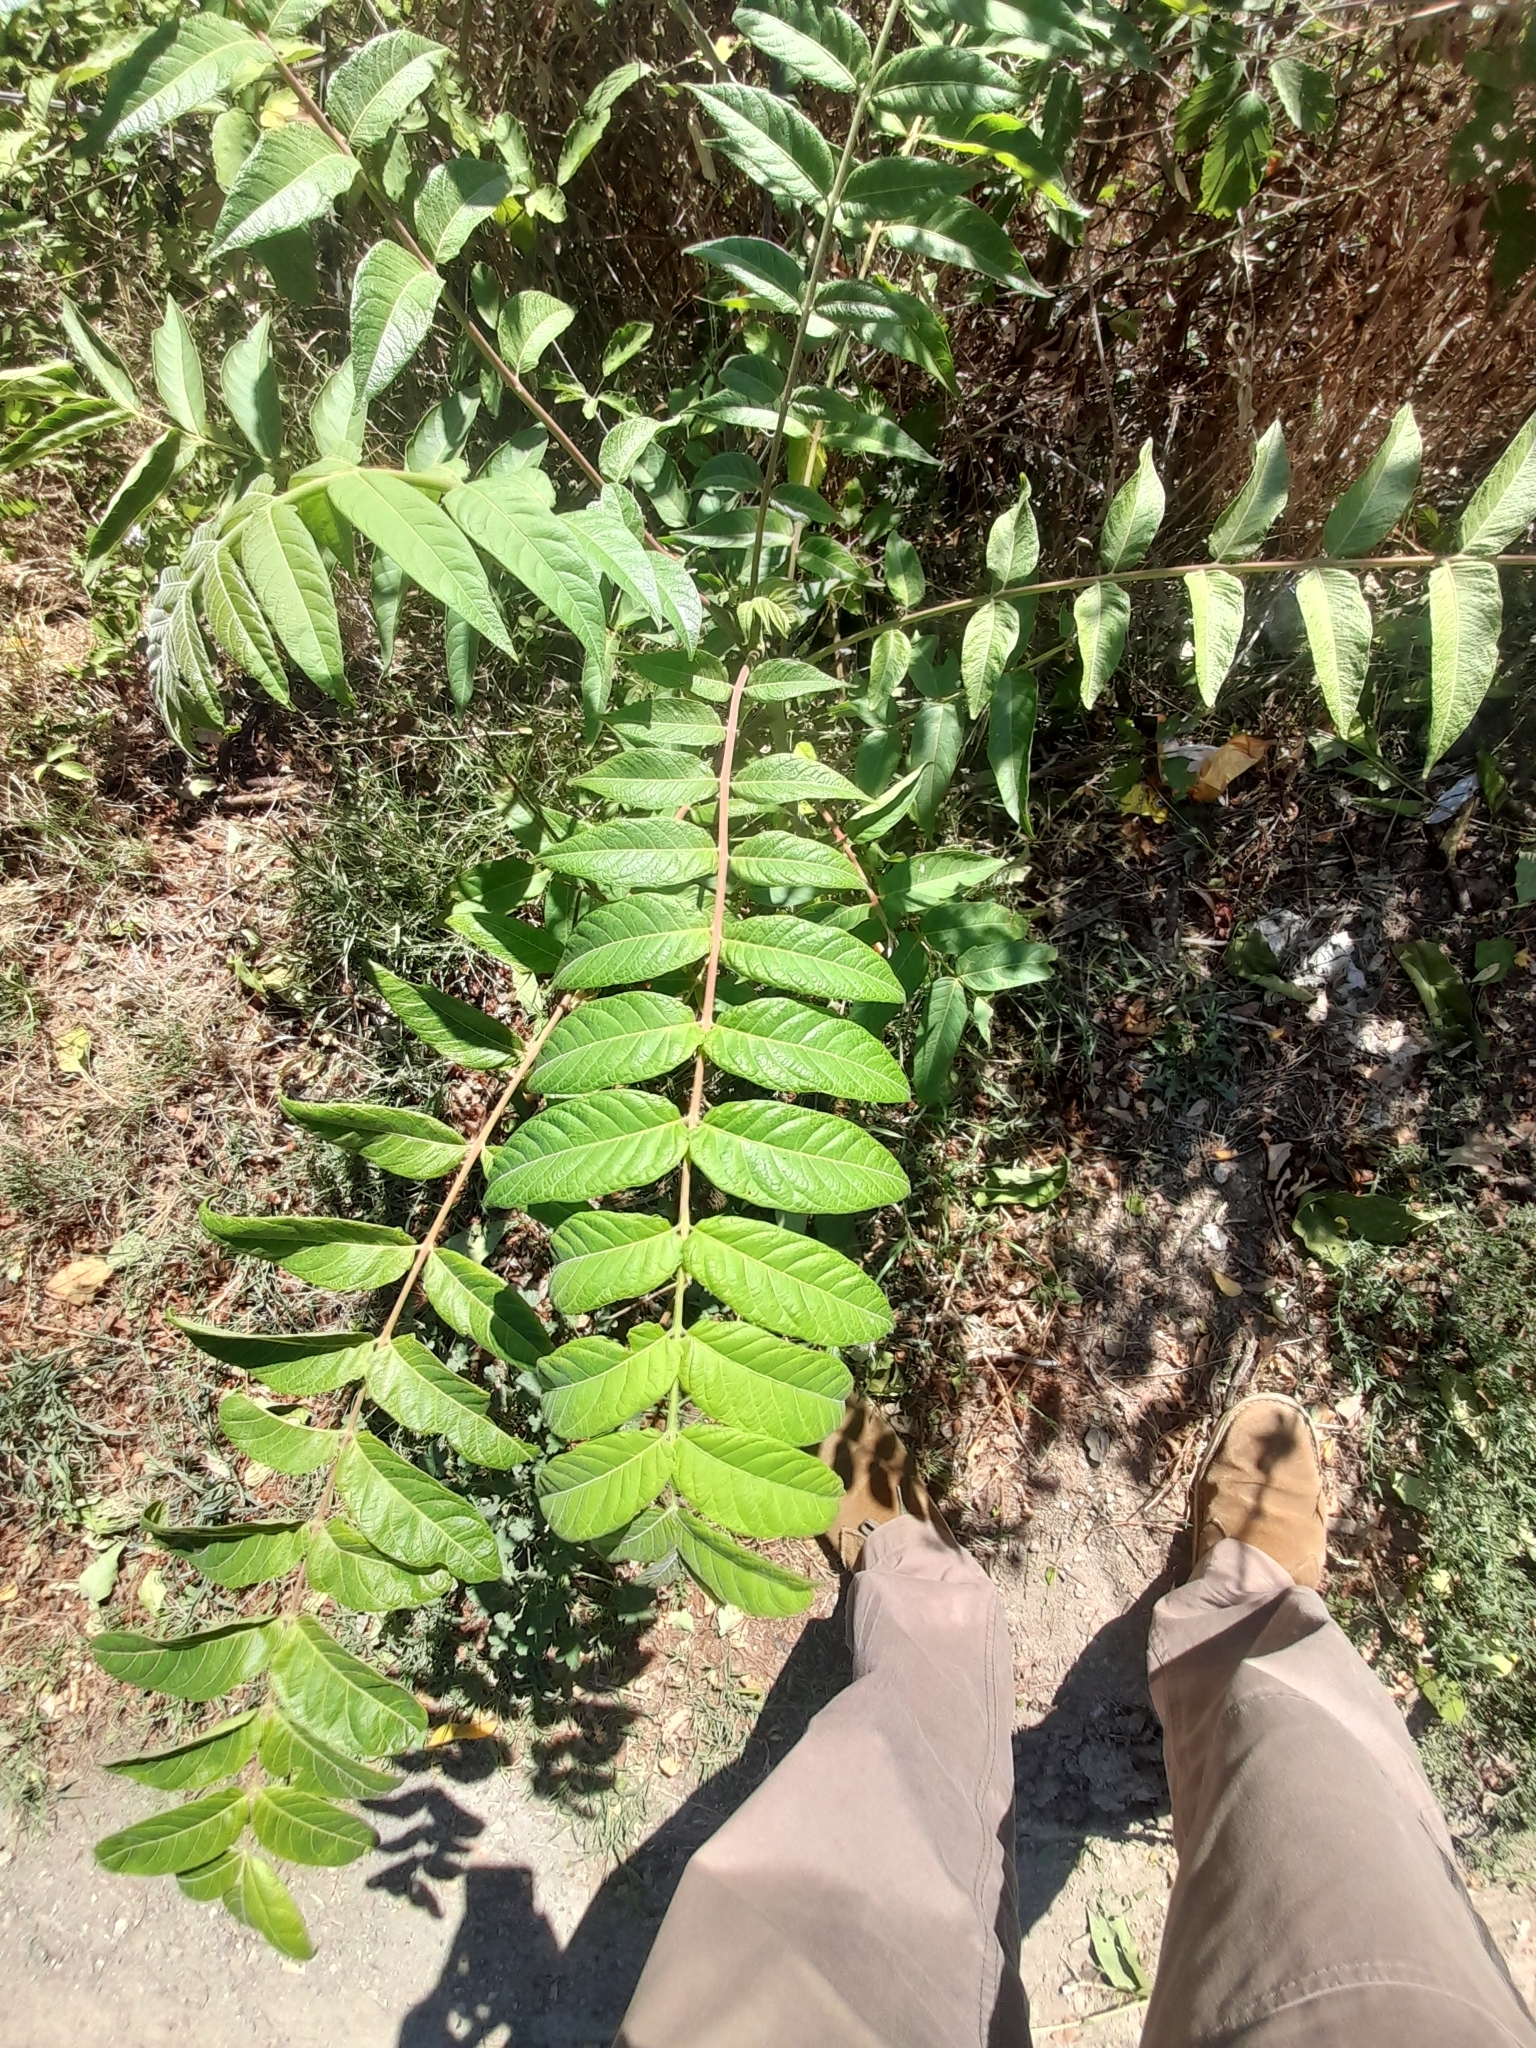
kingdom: Plantae
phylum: Tracheophyta
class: Magnoliopsida
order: Sapindales
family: Simaroubaceae
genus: Ailanthus
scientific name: Ailanthus altissima
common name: Tree-of-heaven
